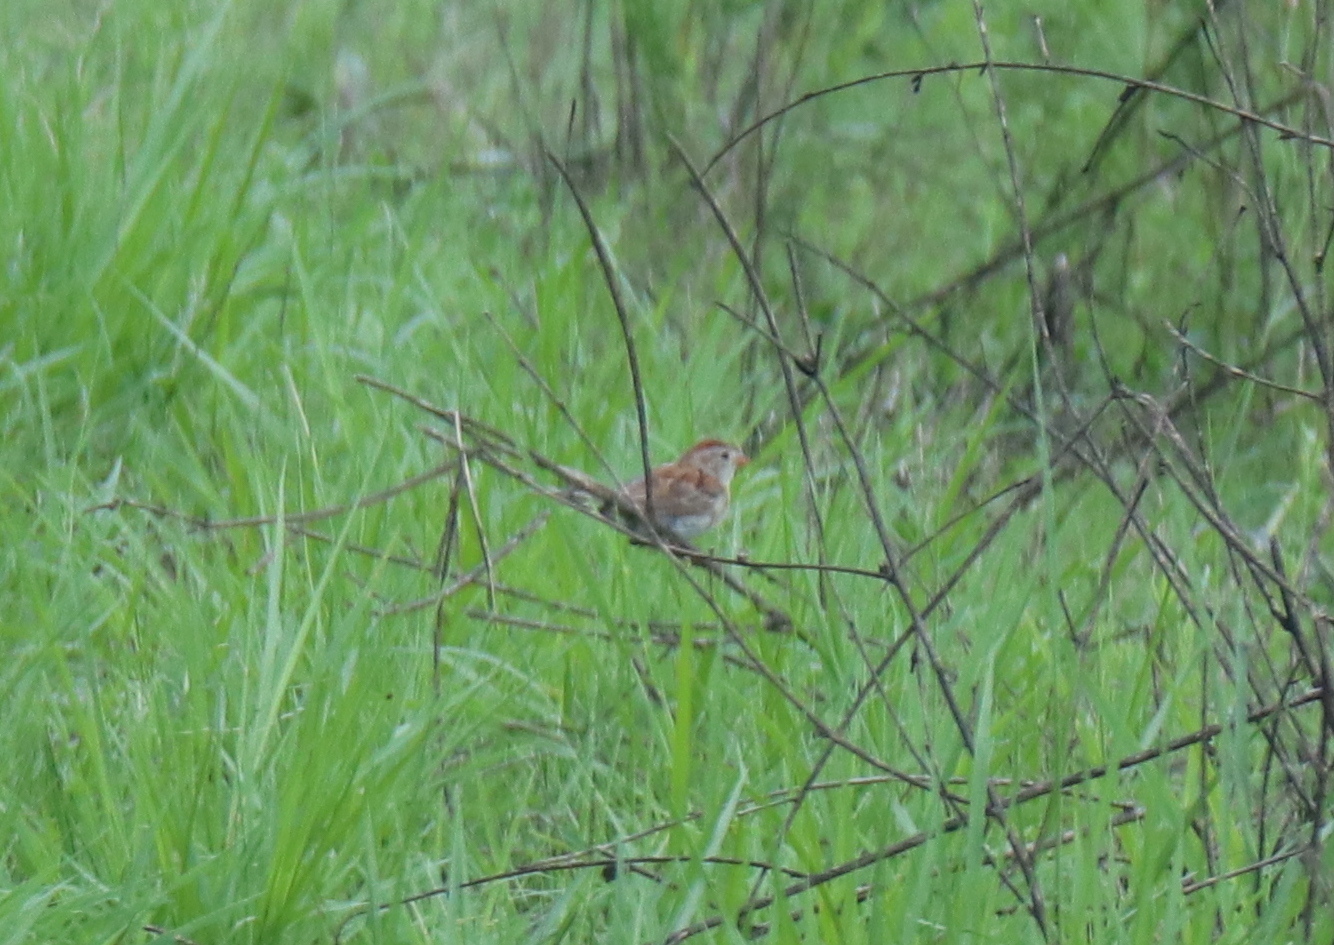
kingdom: Animalia
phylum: Chordata
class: Aves
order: Passeriformes
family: Passerellidae
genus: Spizella
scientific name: Spizella pusilla
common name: Field sparrow
